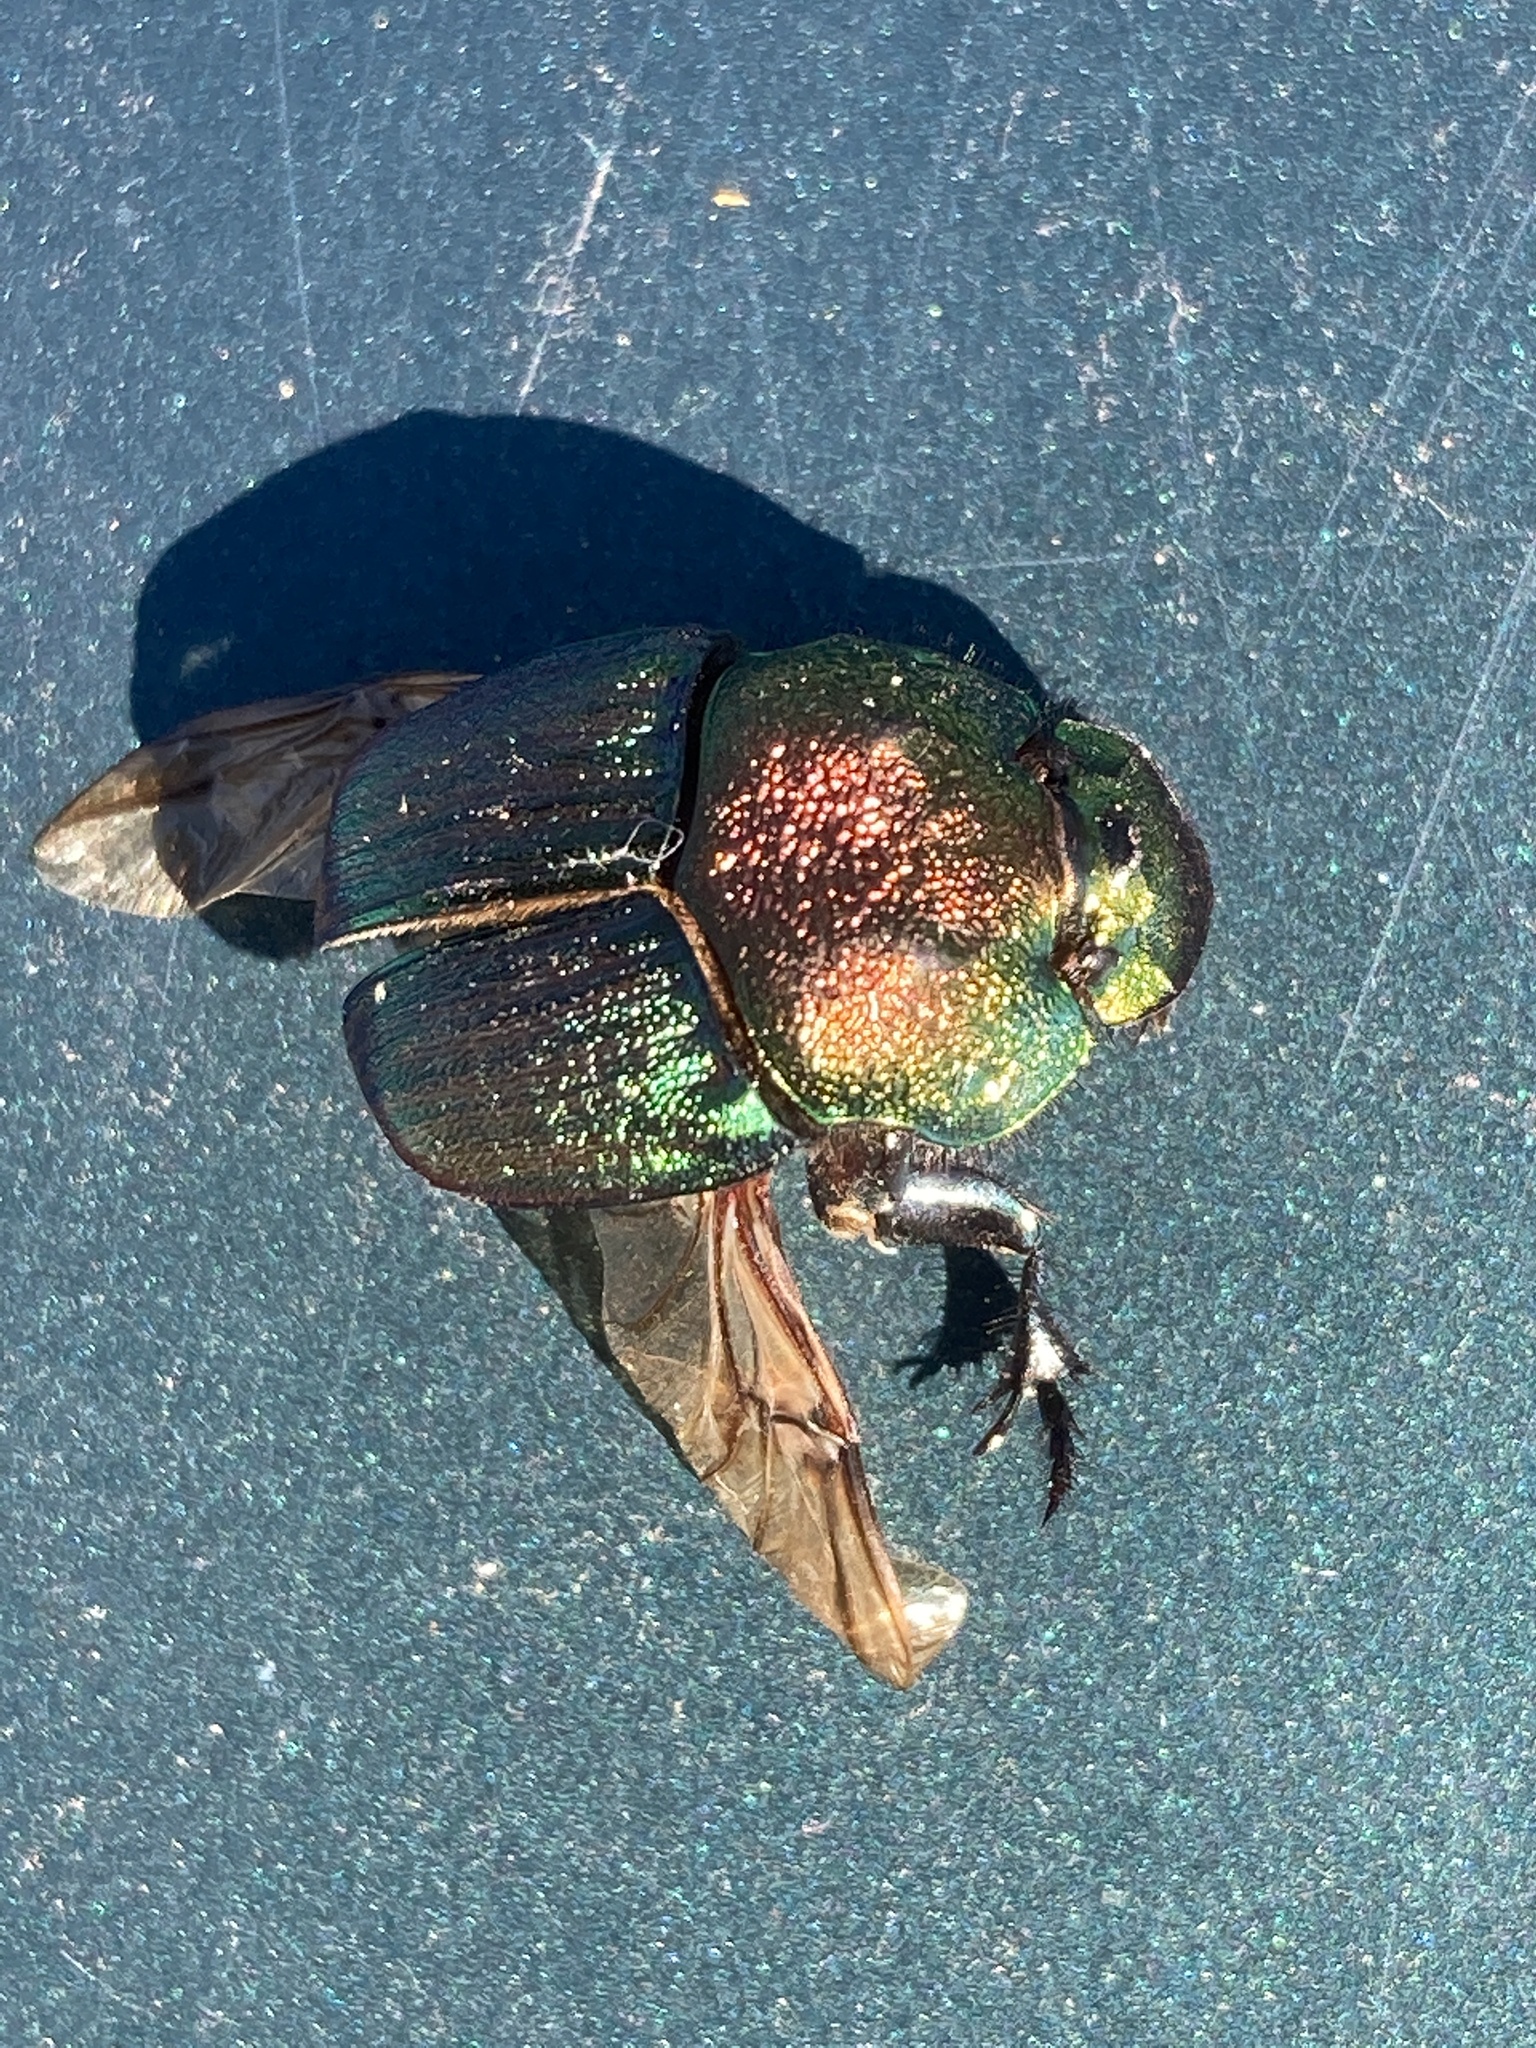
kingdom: Animalia
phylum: Arthropoda
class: Insecta
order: Coleoptera
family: Scarabaeidae
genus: Phanaeus
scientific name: Phanaeus vindex
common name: Rainbow scarab
